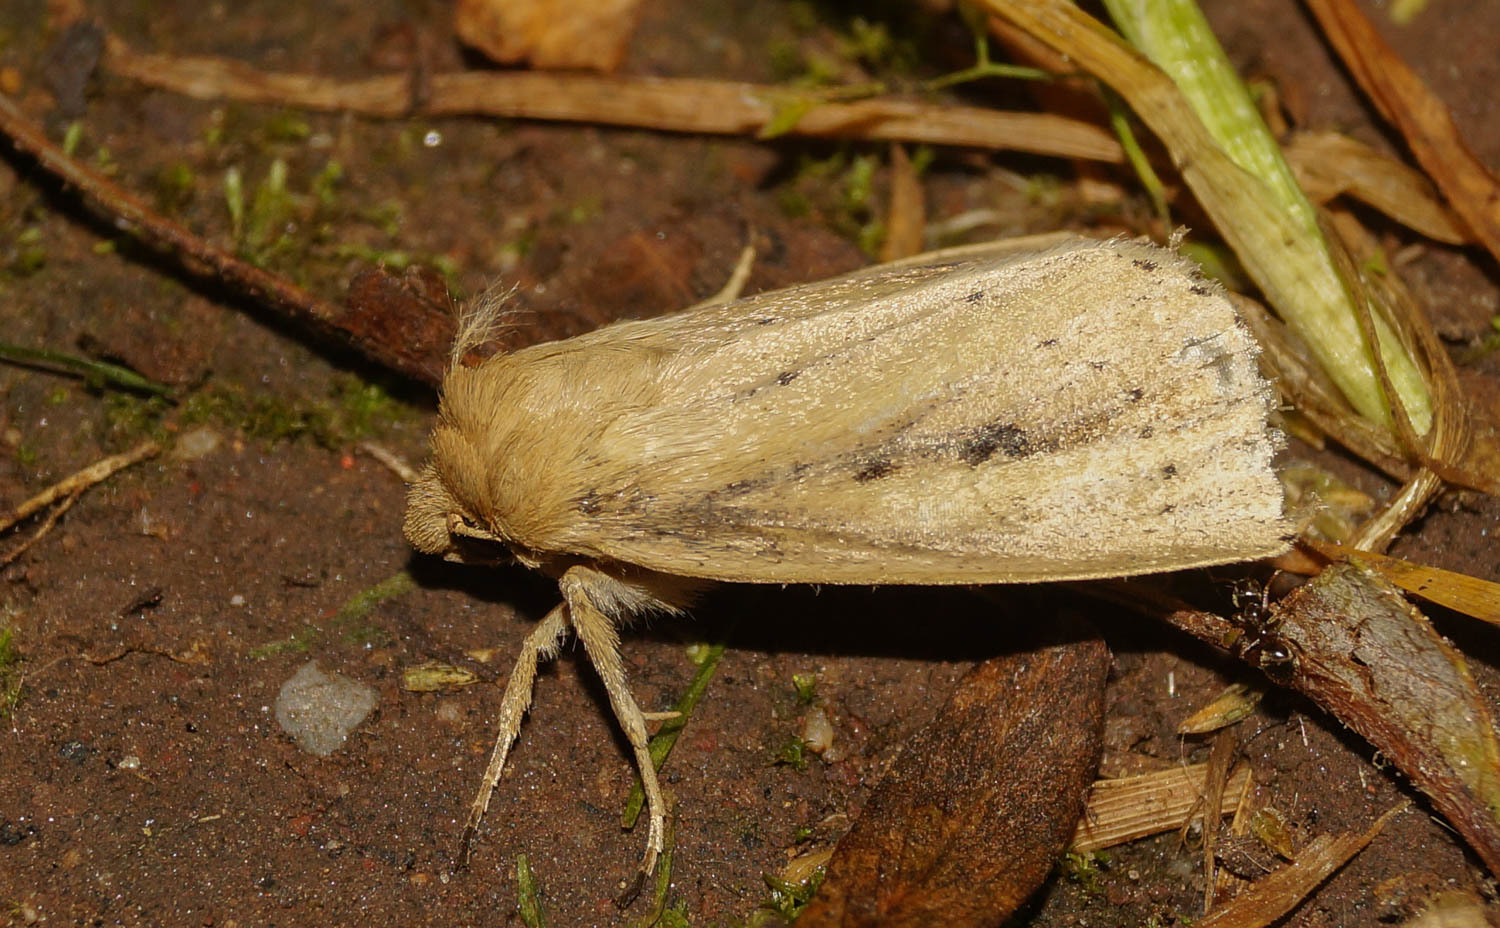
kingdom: Animalia
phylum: Arthropoda
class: Insecta
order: Lepidoptera
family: Noctuidae
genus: Globia
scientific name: Globia sparganii
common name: Webb's wainscot
